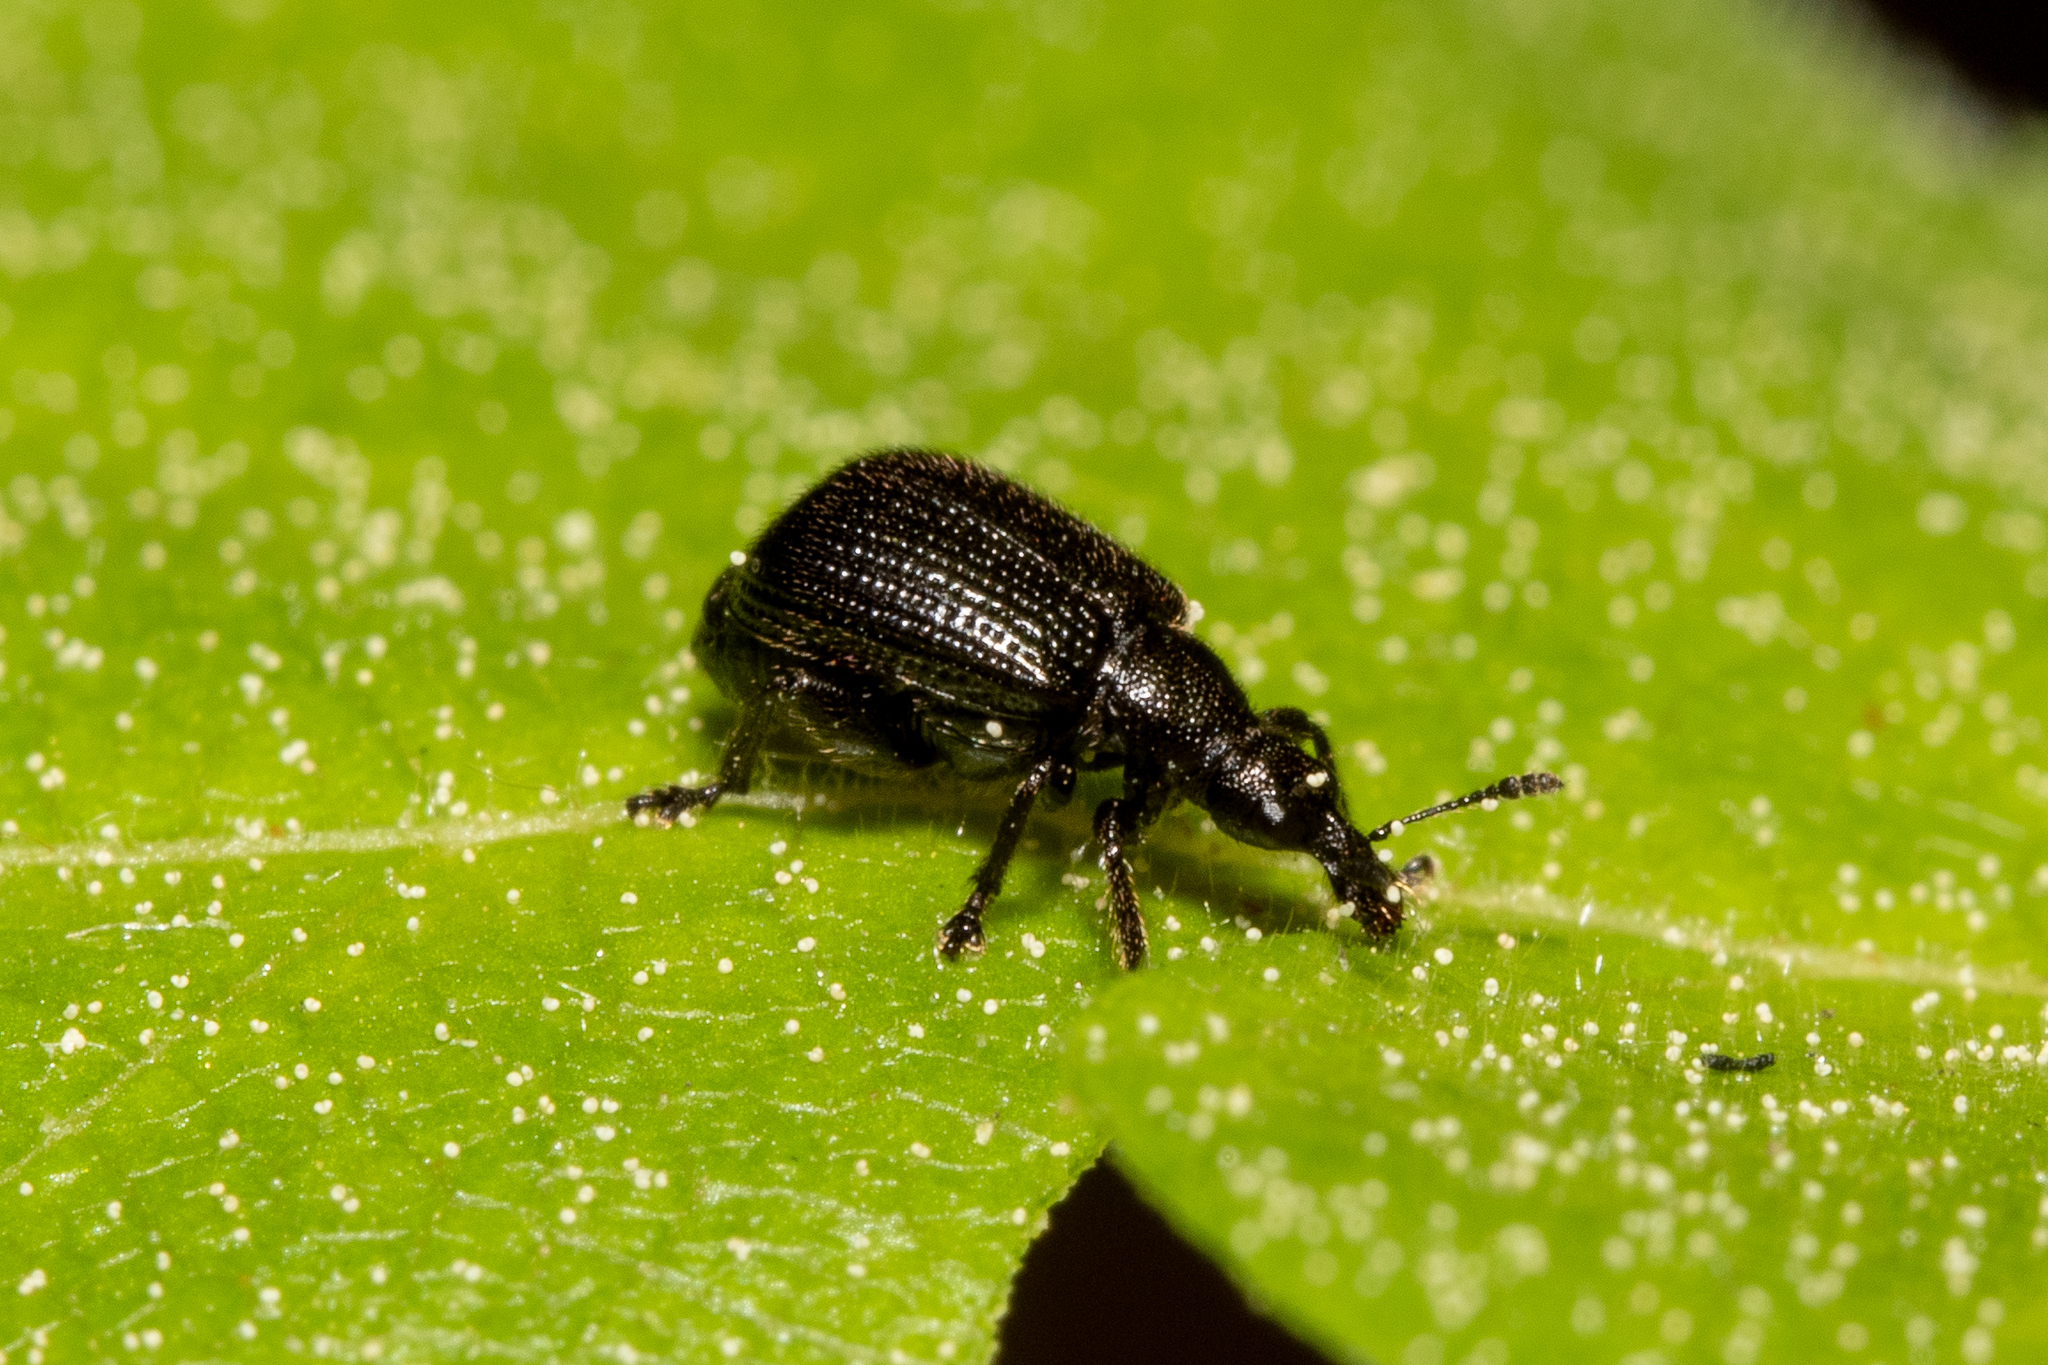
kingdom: Animalia
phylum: Arthropoda
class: Insecta
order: Coleoptera
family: Attelabidae
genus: Deporaus
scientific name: Deporaus betulae
